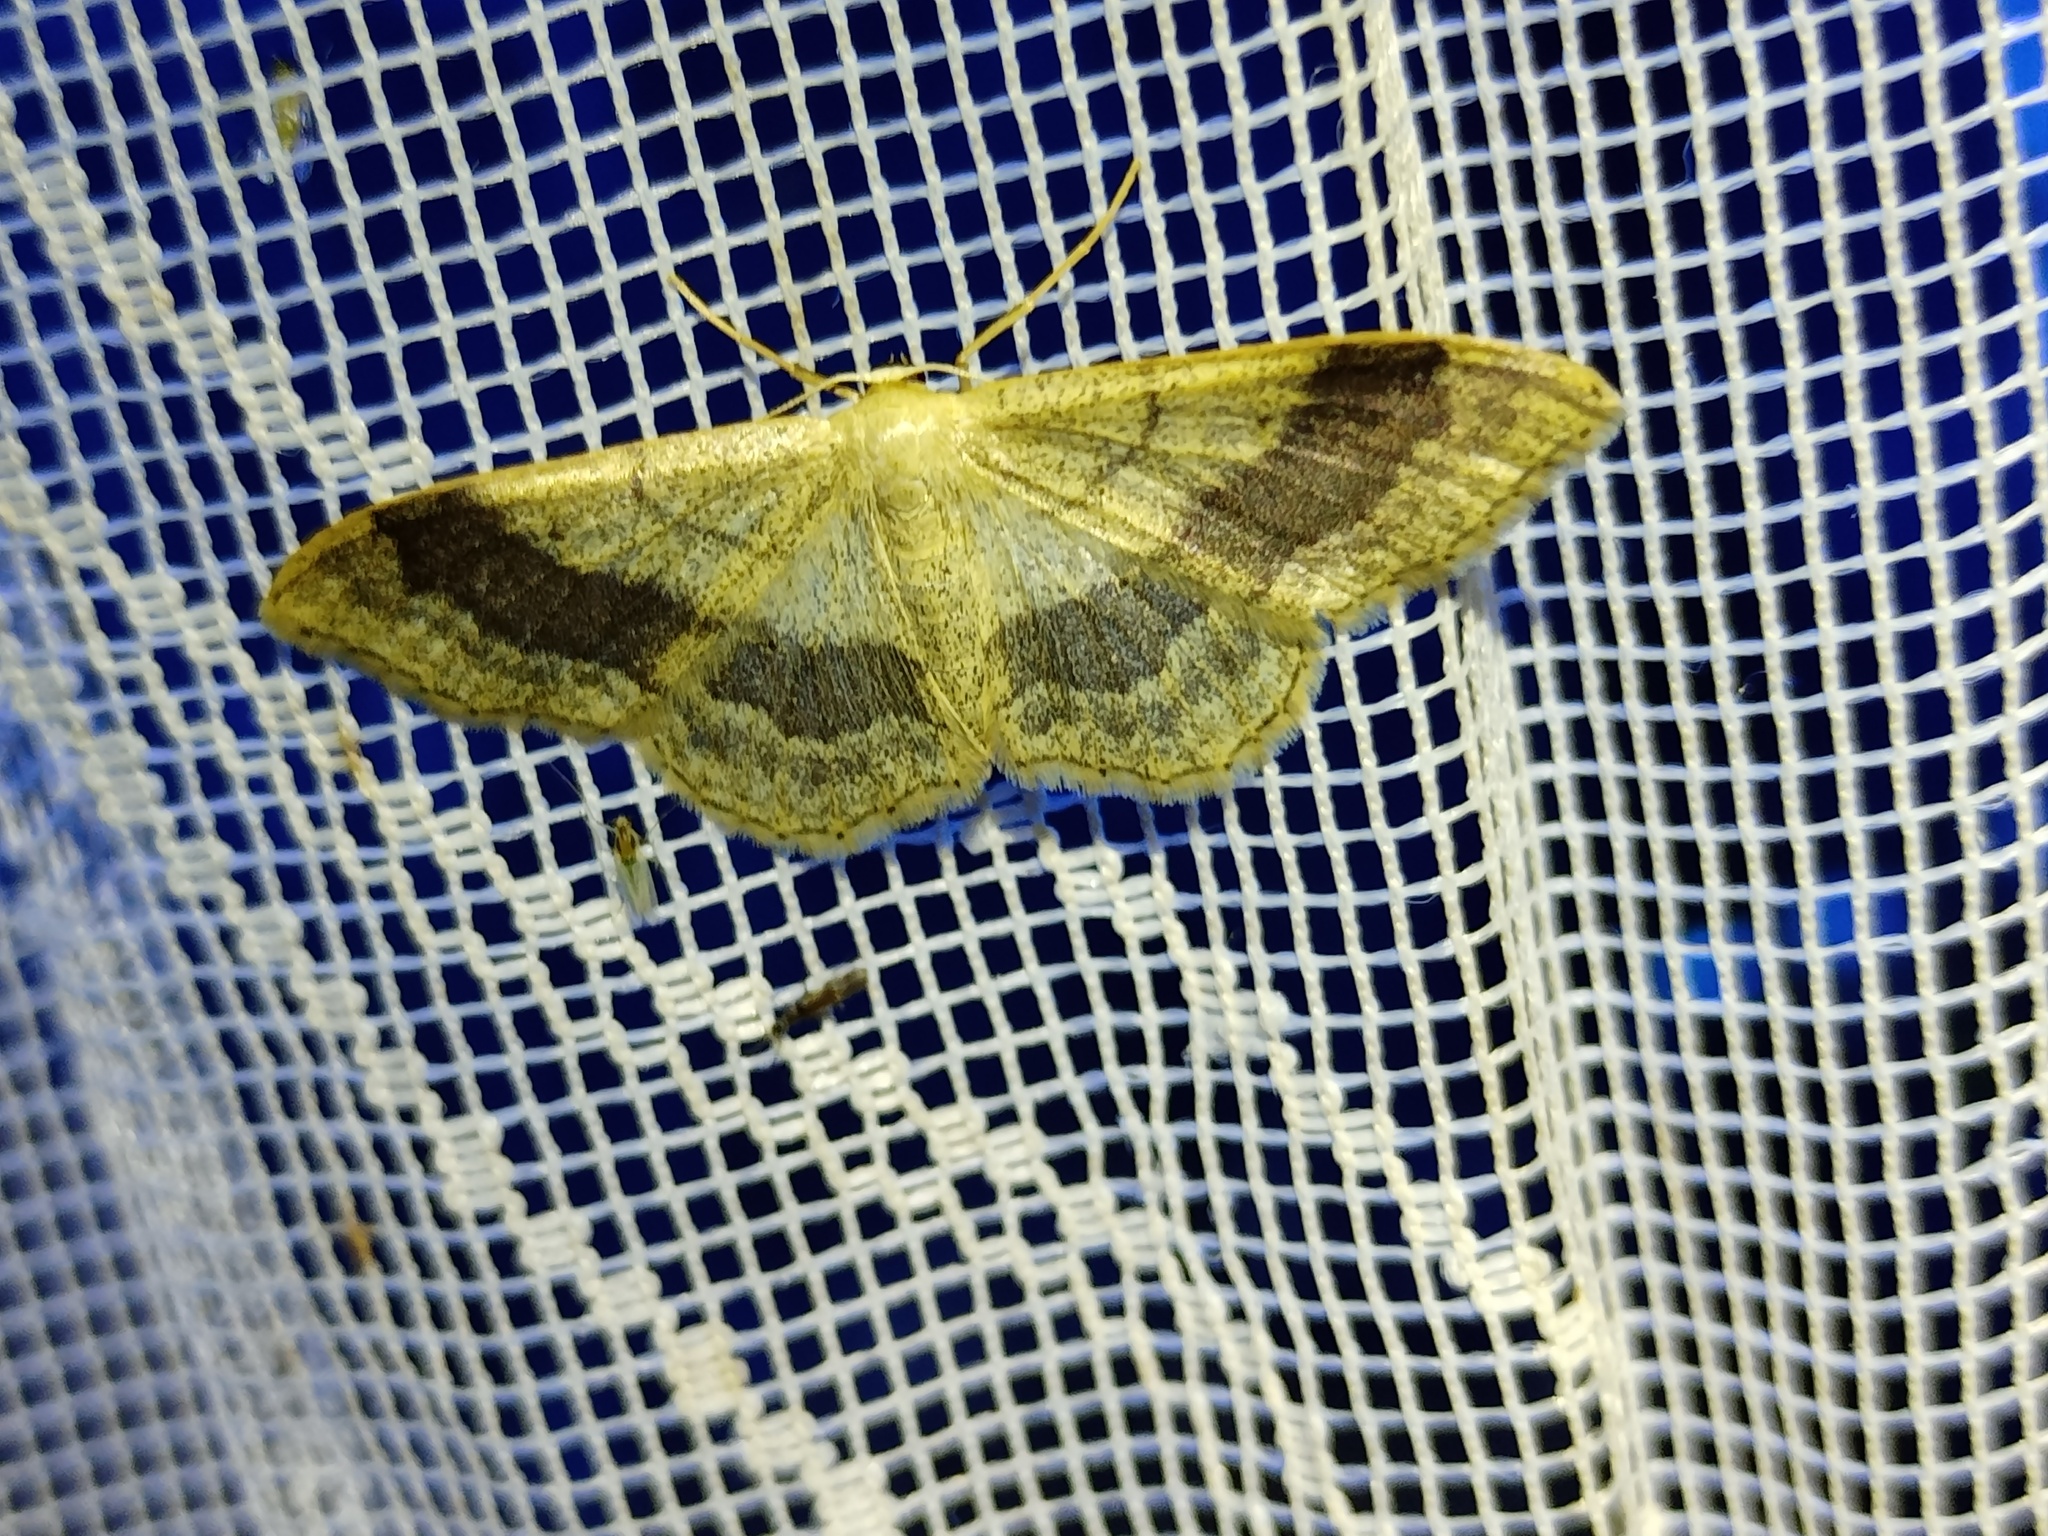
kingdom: Animalia
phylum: Arthropoda
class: Insecta
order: Lepidoptera
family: Geometridae
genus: Idaea
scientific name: Idaea aversata
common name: Riband wave
